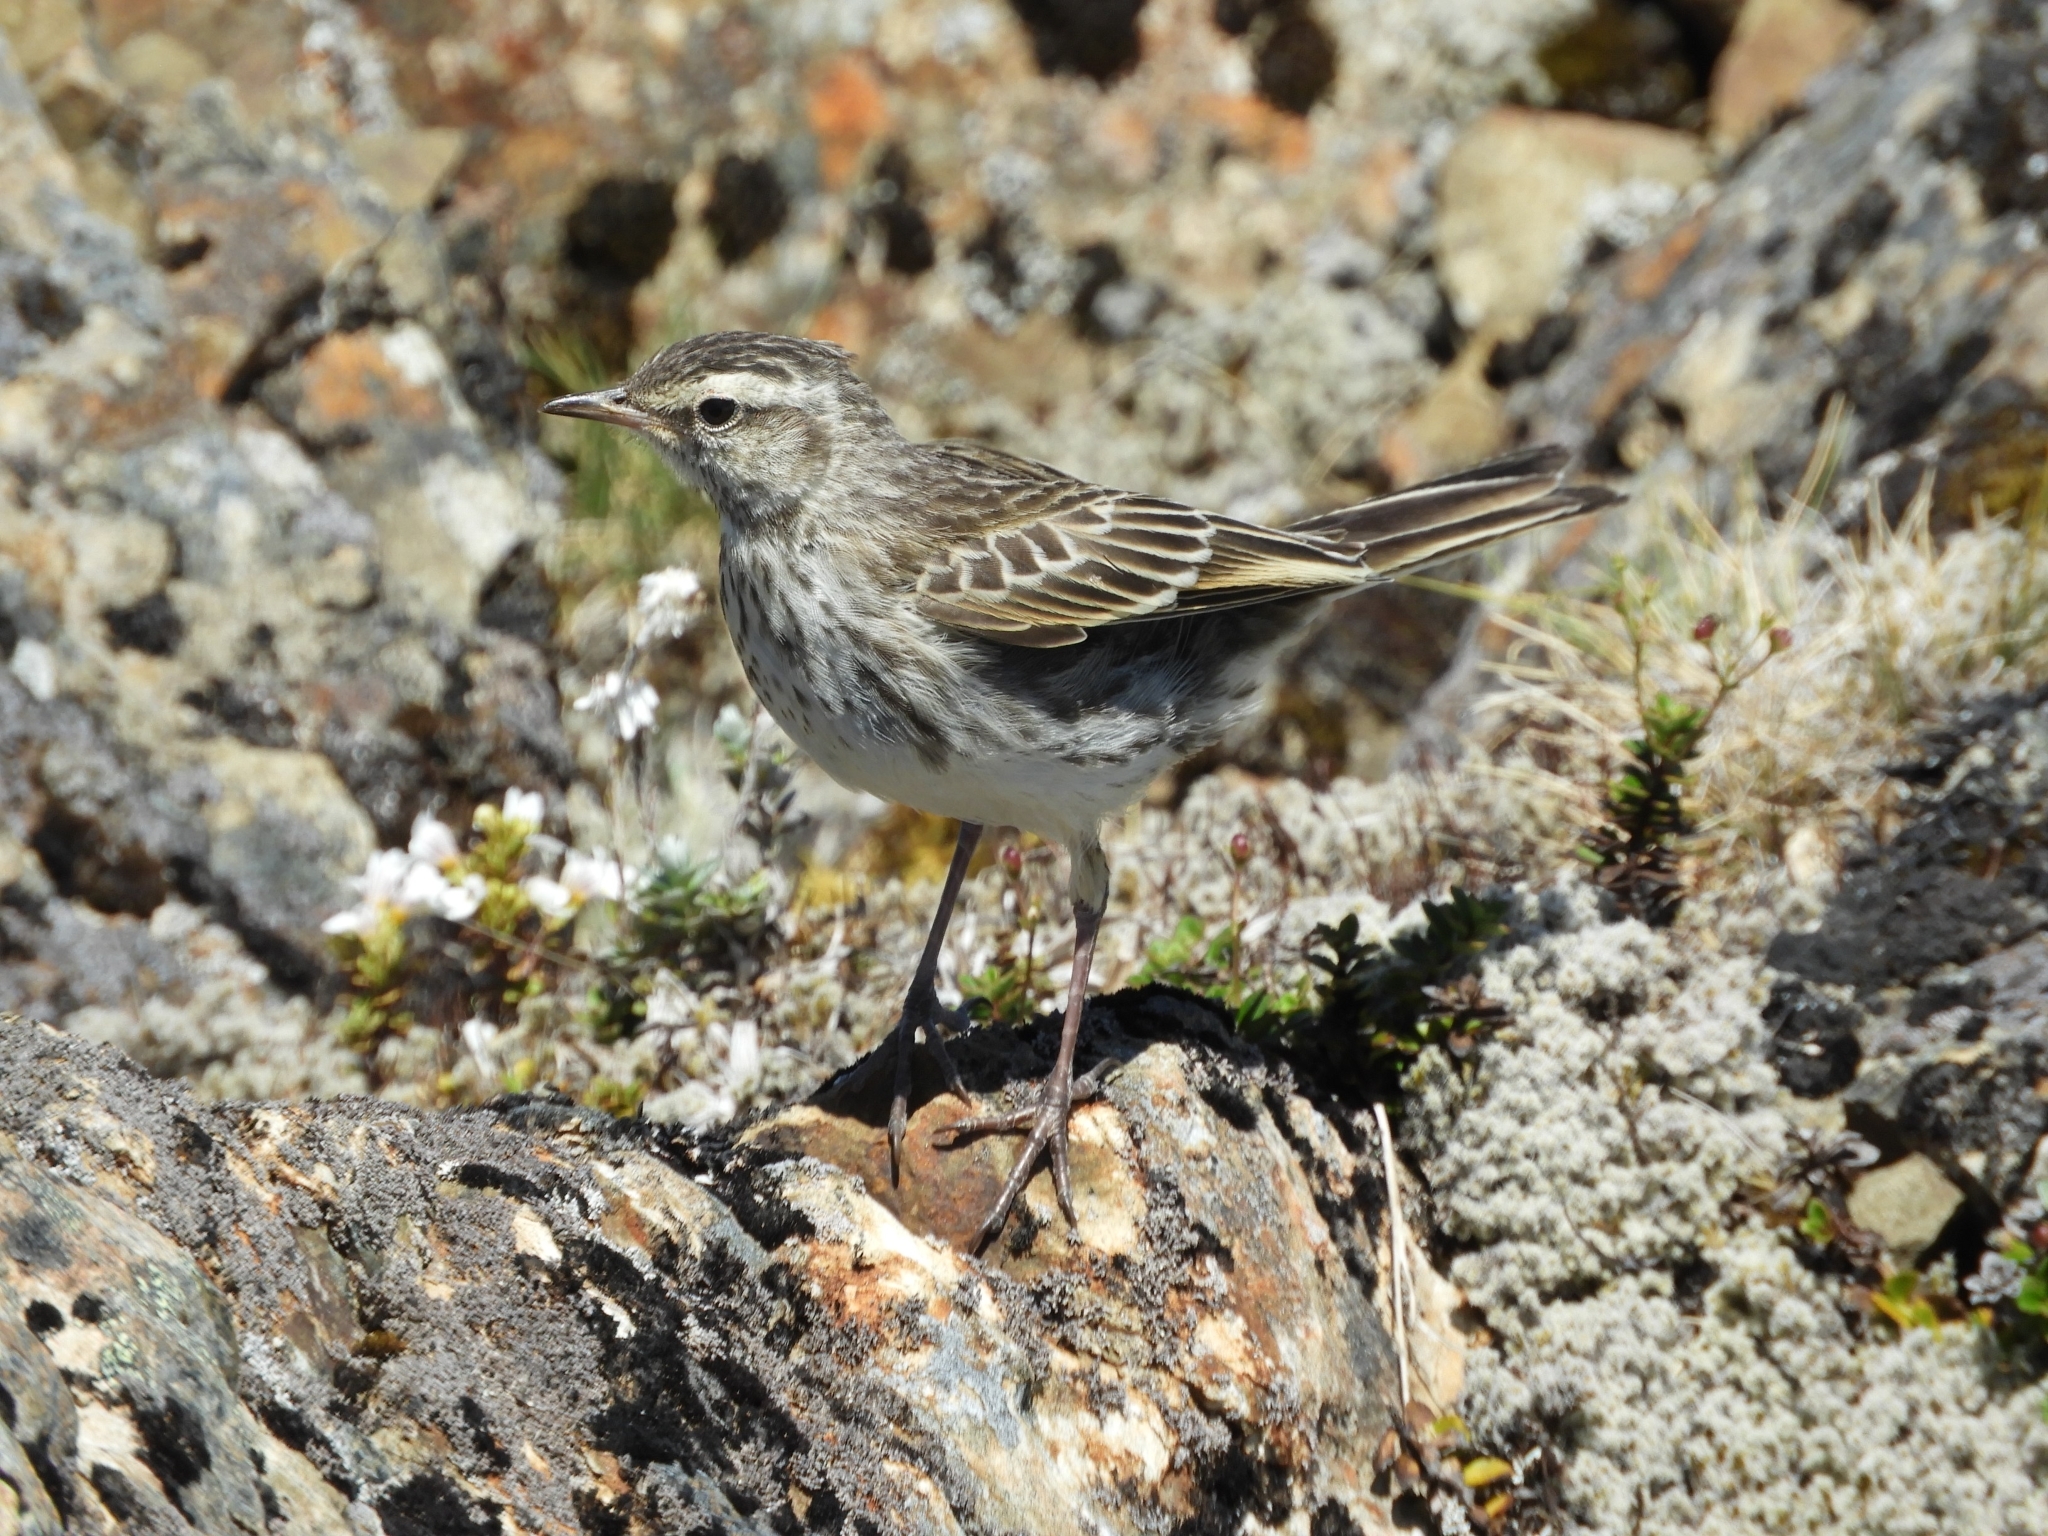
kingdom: Animalia
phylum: Chordata
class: Aves
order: Passeriformes
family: Motacillidae
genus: Anthus
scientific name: Anthus novaeseelandiae
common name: New zealand pipit
